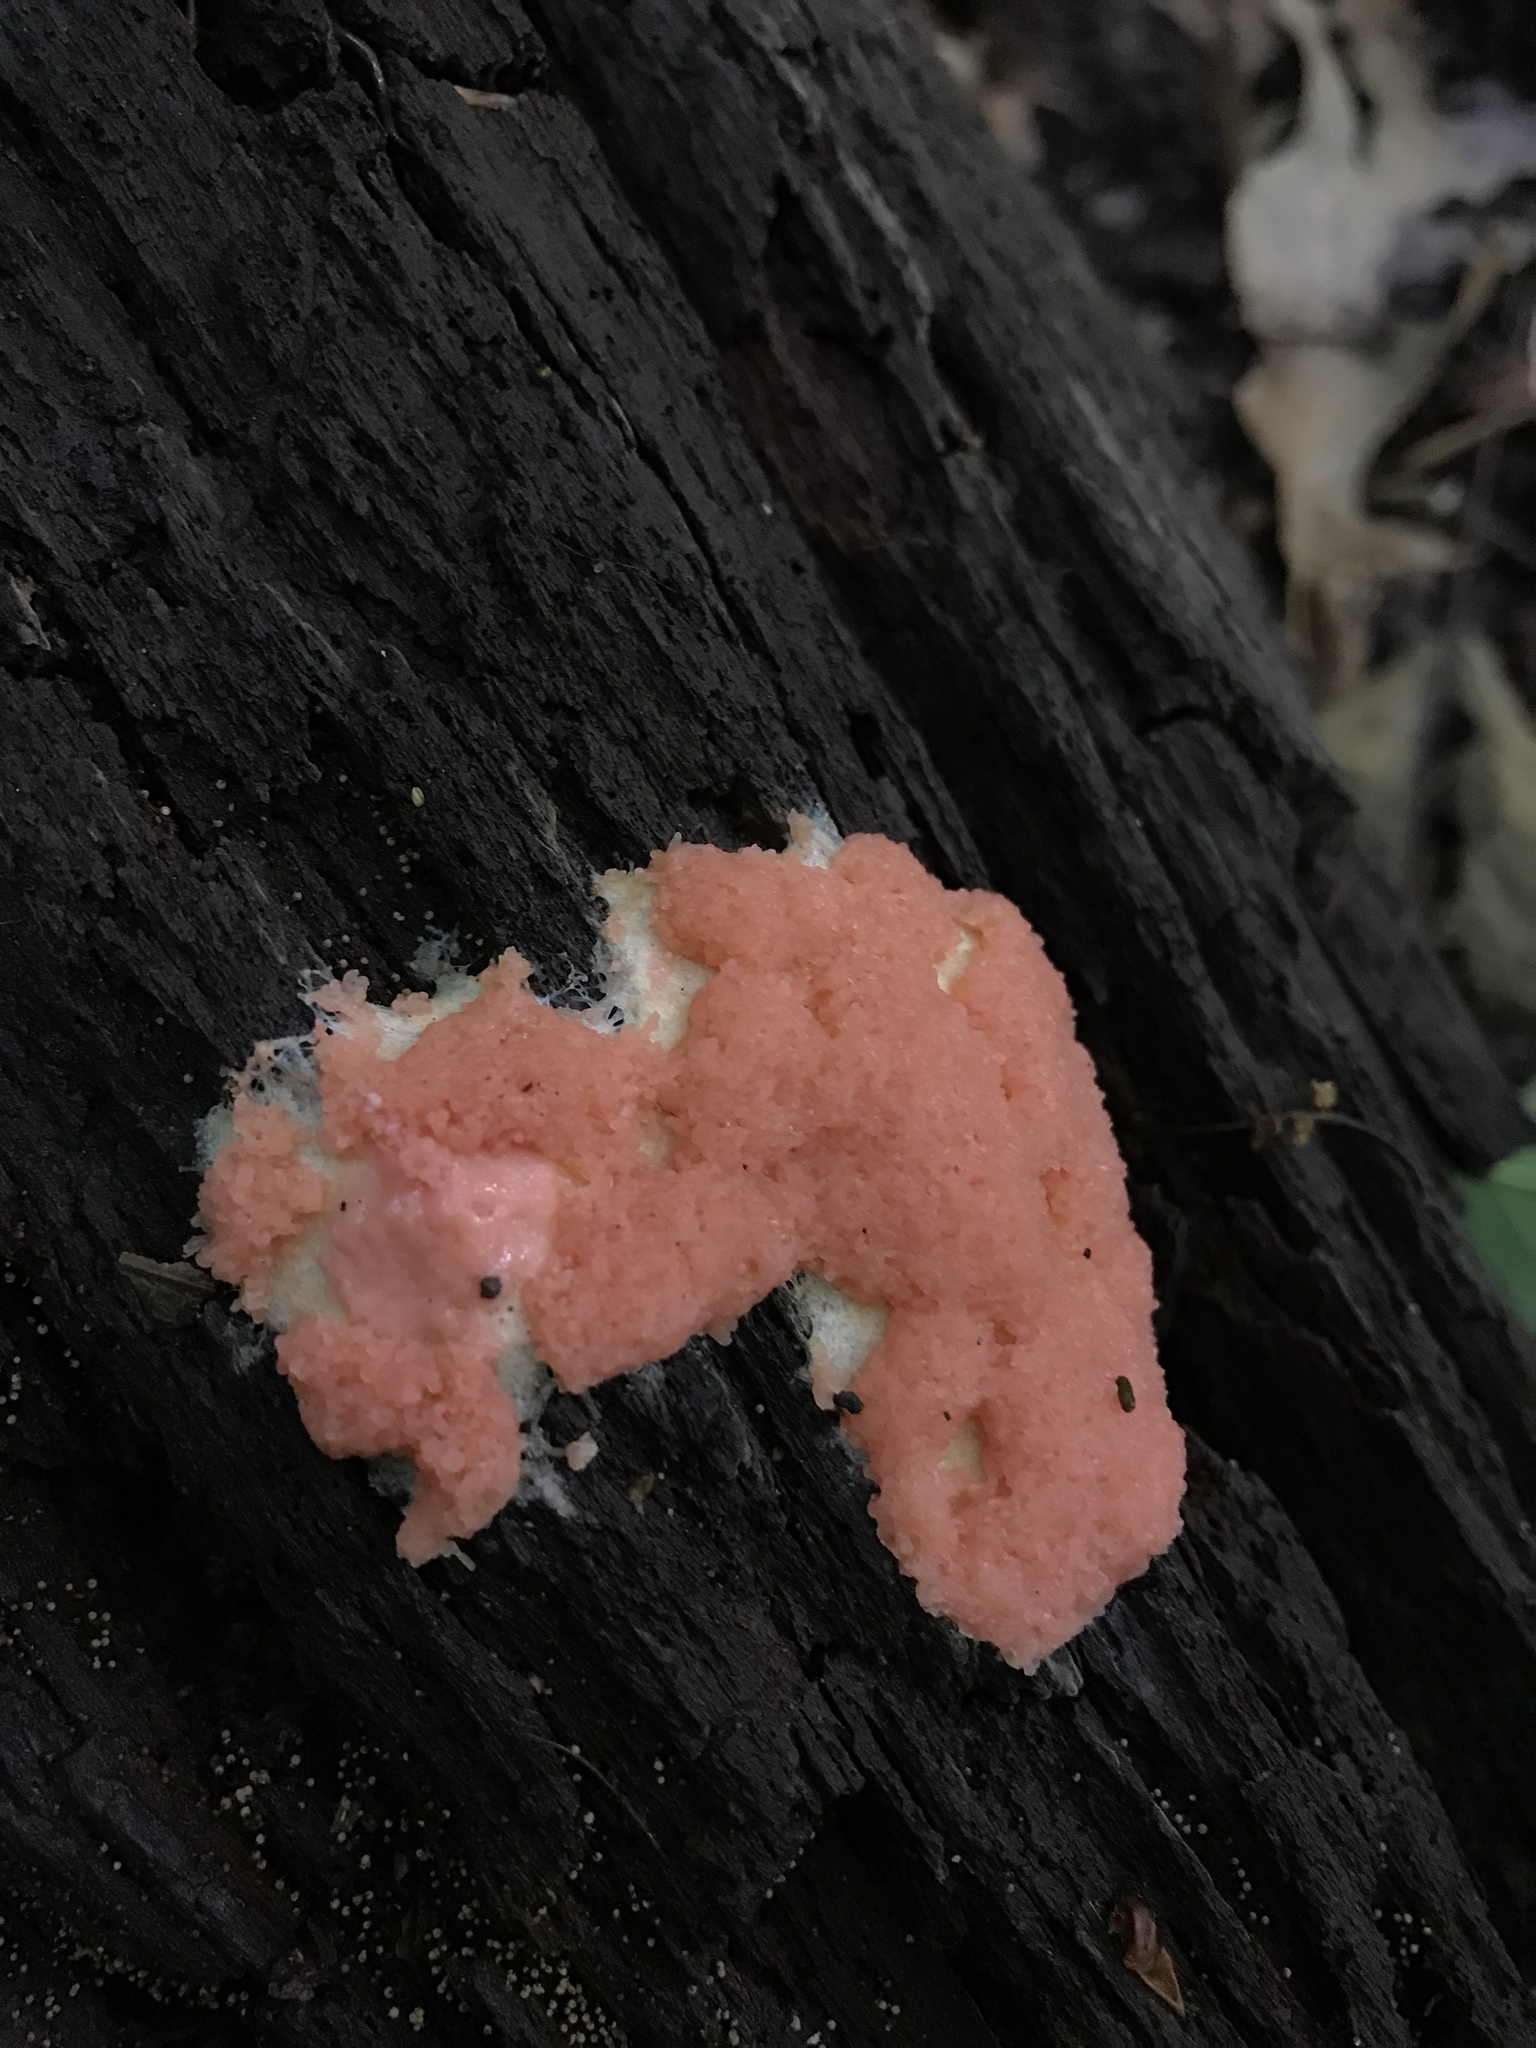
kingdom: Protozoa
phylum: Mycetozoa
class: Myxomycetes
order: Cribrariales
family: Tubiferaceae
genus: Tubifera
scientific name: Tubifera ferruginosa
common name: Red raspberry slime mold
